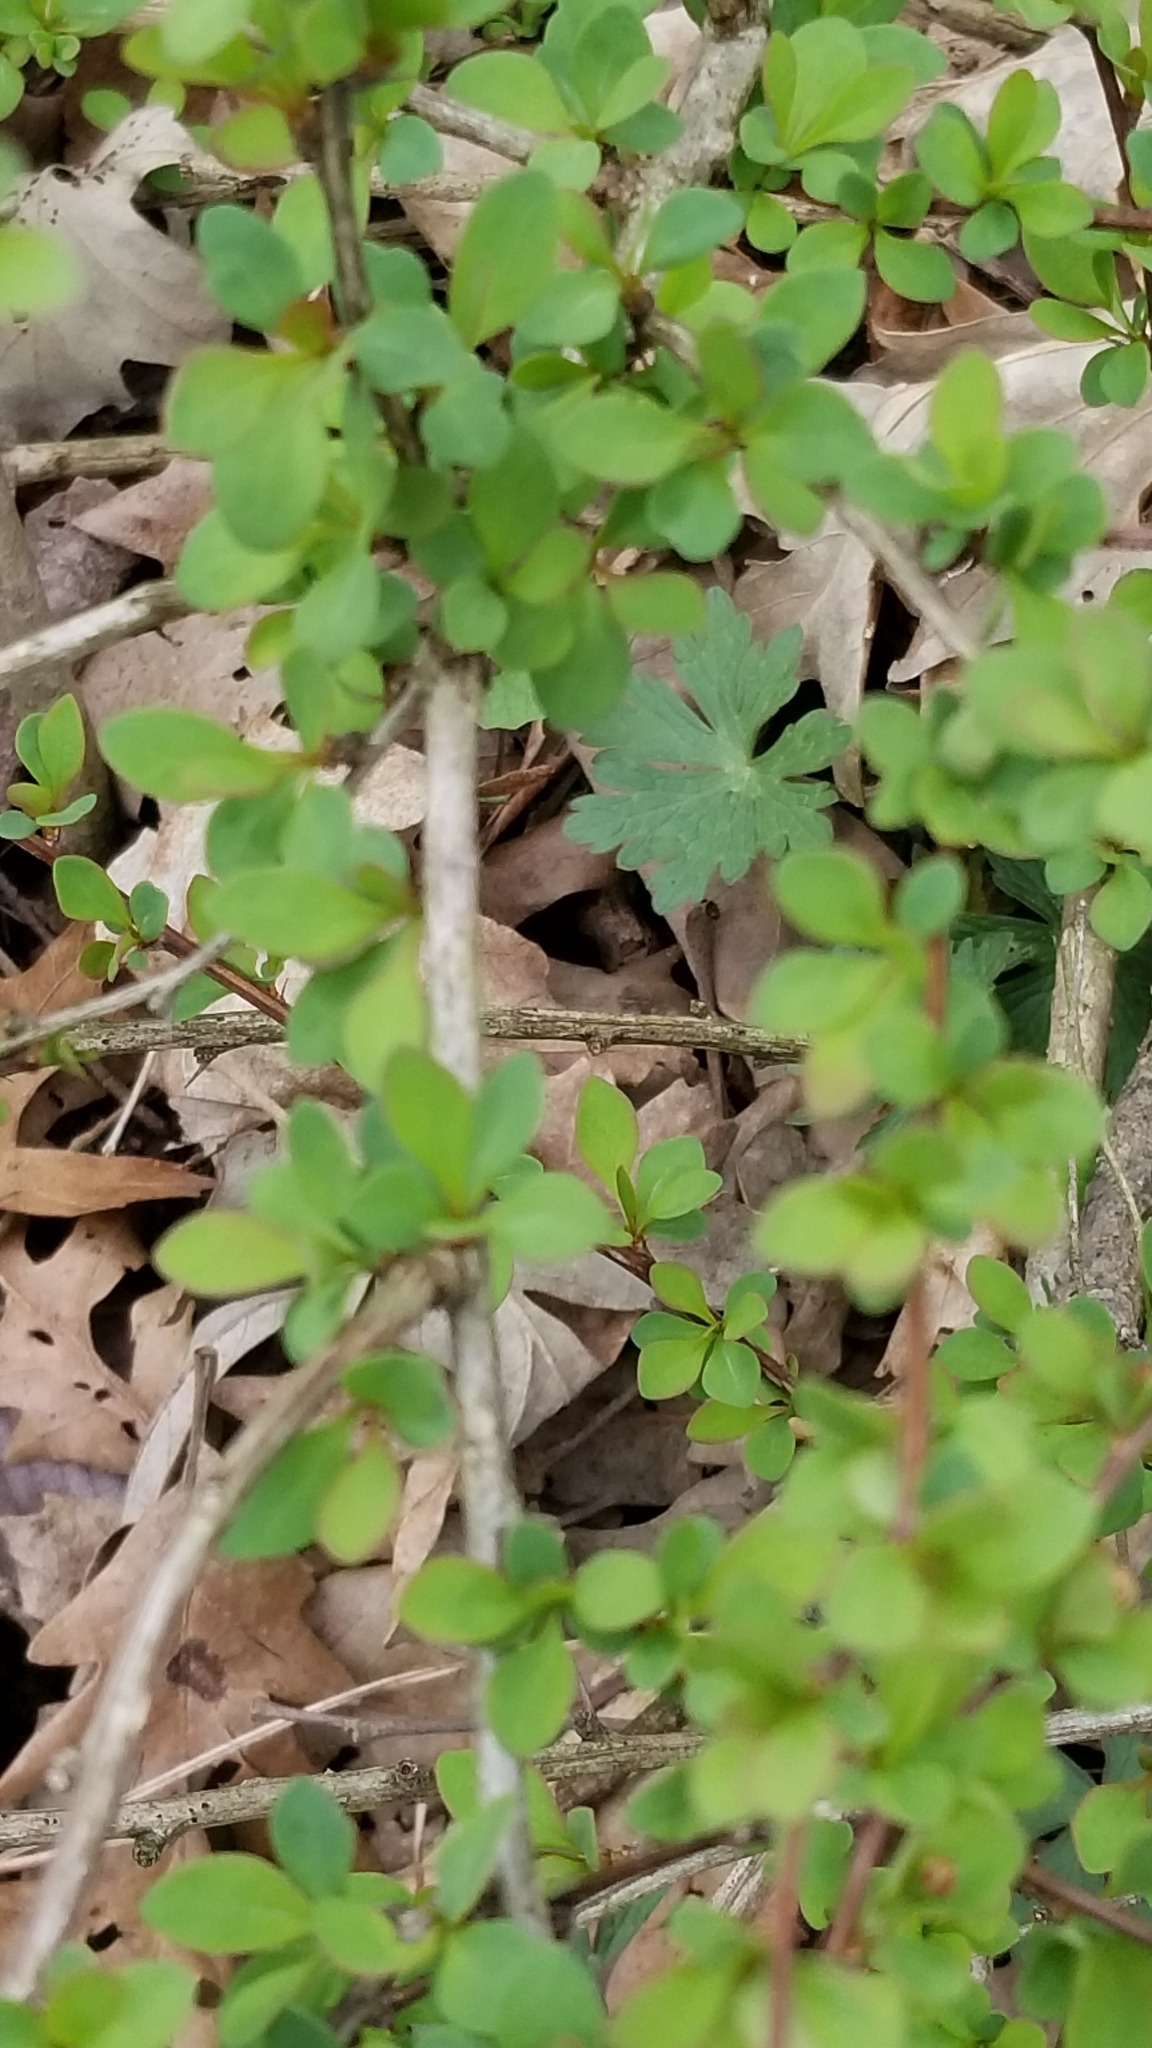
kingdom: Plantae
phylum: Tracheophyta
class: Magnoliopsida
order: Ranunculales
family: Berberidaceae
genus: Berberis
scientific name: Berberis thunbergii
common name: Japanese barberry
